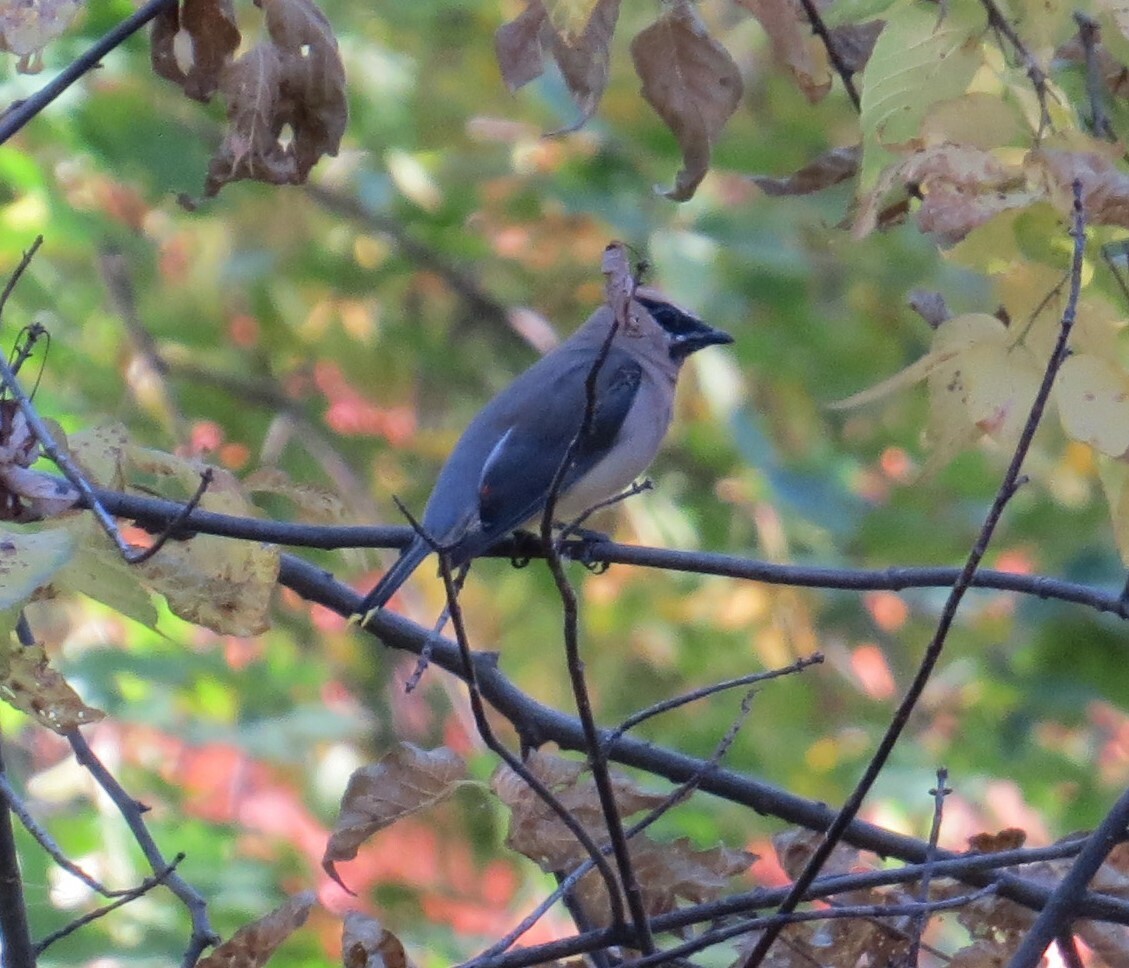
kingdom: Animalia
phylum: Chordata
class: Aves
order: Passeriformes
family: Bombycillidae
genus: Bombycilla
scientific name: Bombycilla cedrorum
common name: Cedar waxwing
